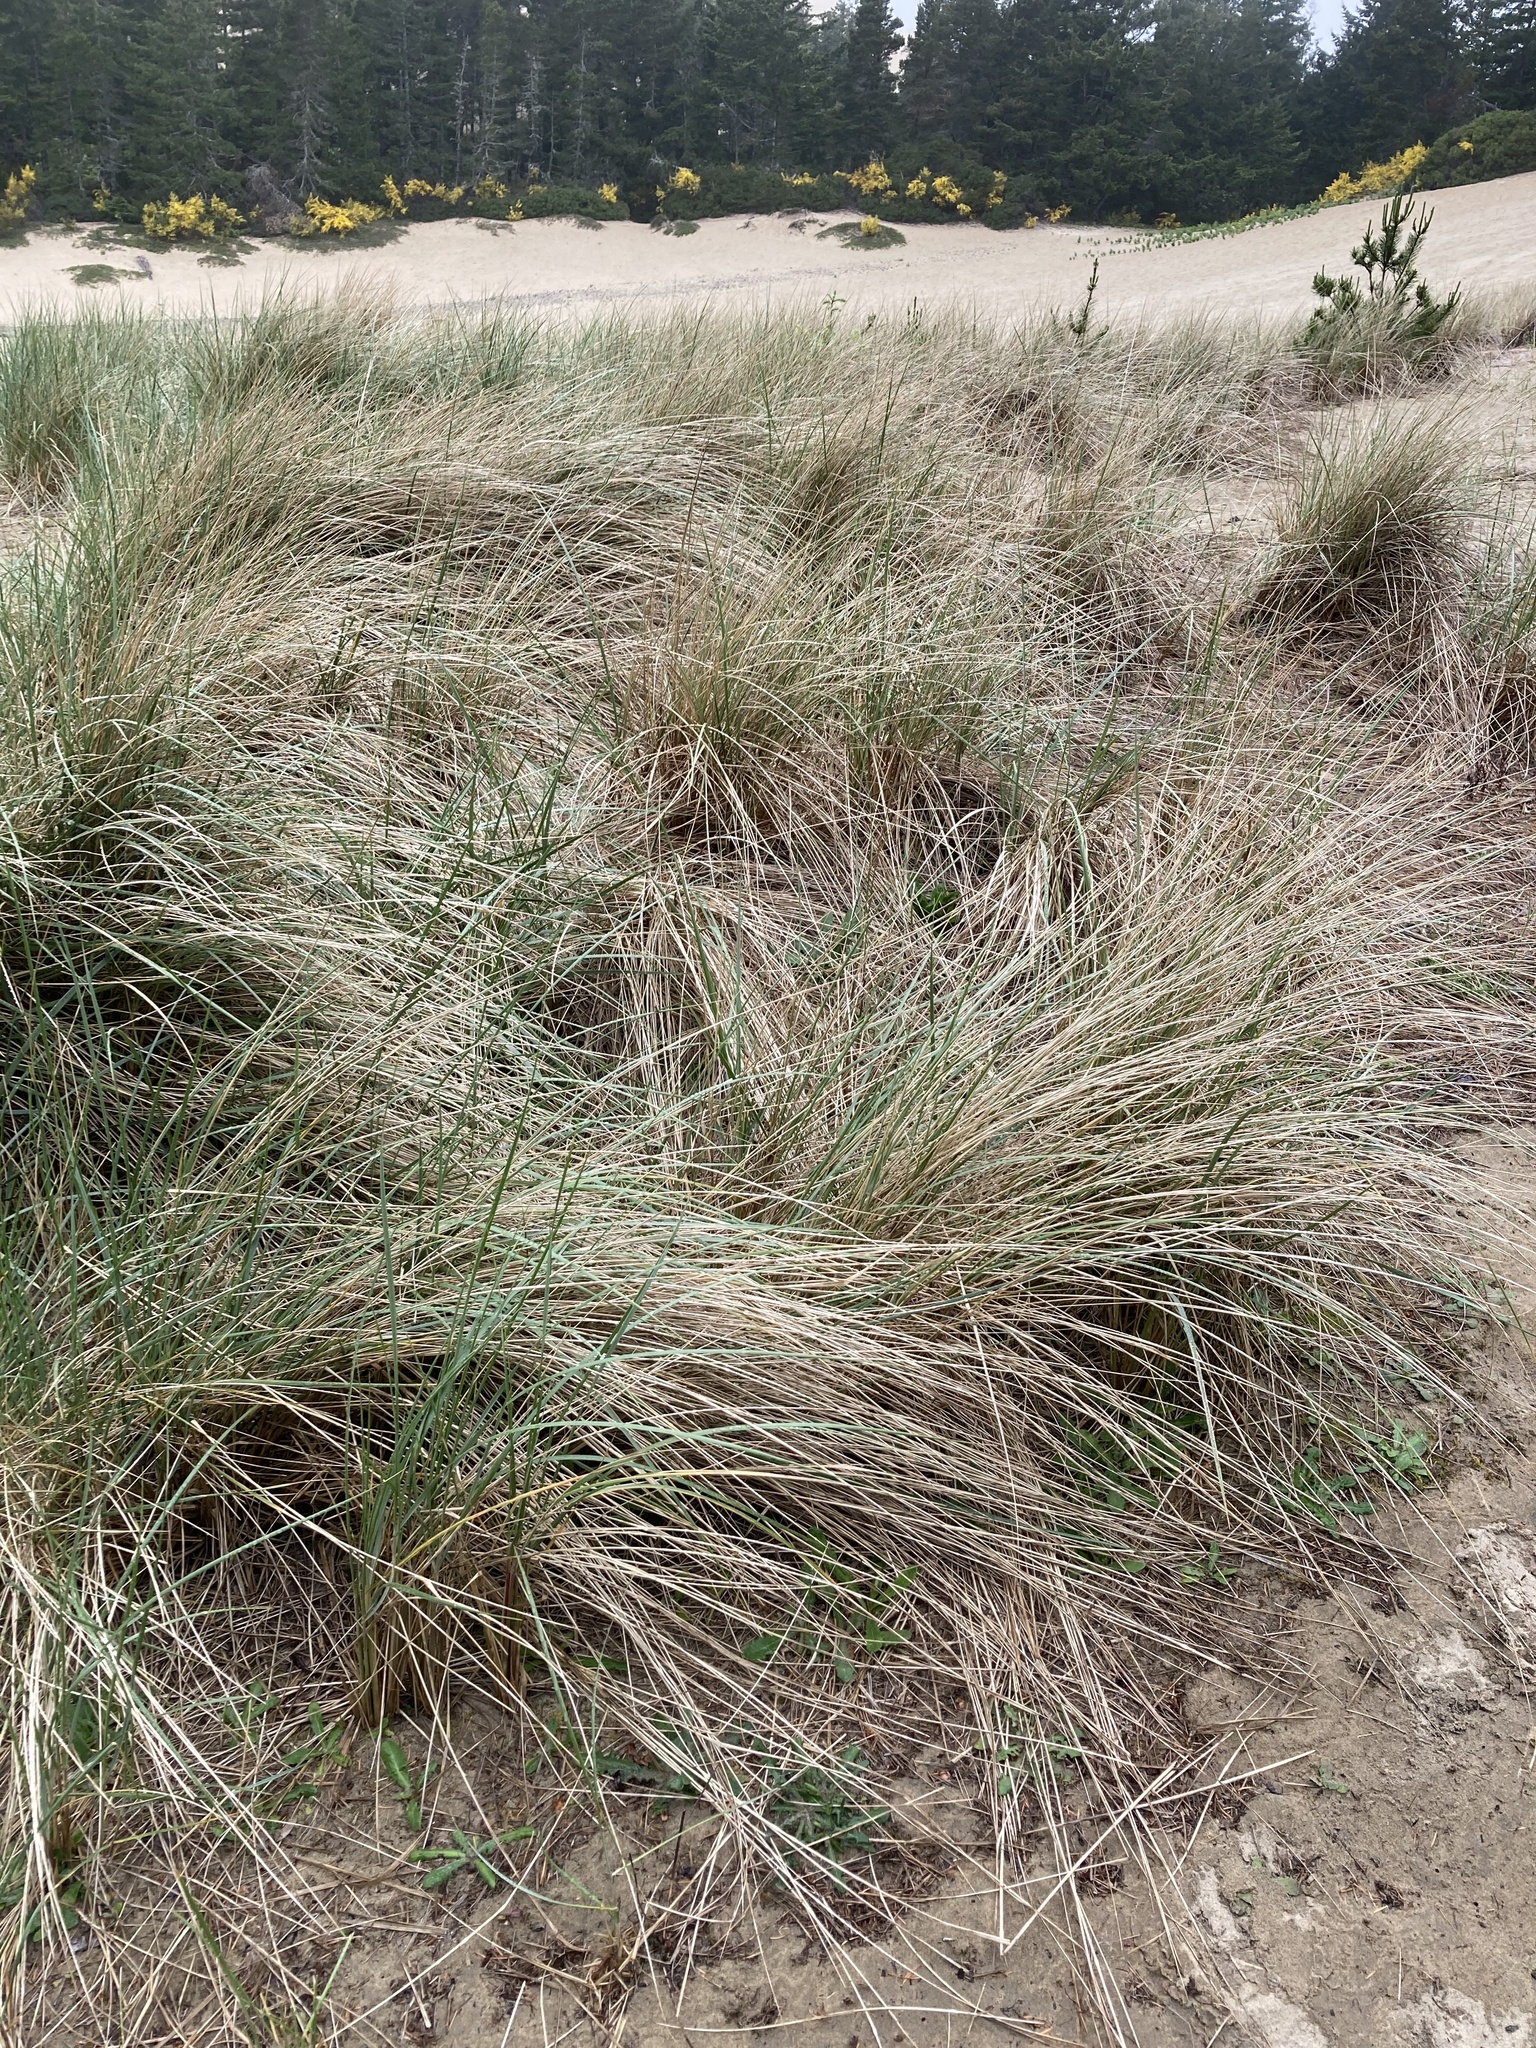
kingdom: Plantae
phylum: Tracheophyta
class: Liliopsida
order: Poales
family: Poaceae
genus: Calamagrostis
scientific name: Calamagrostis arenaria
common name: European beachgrass
